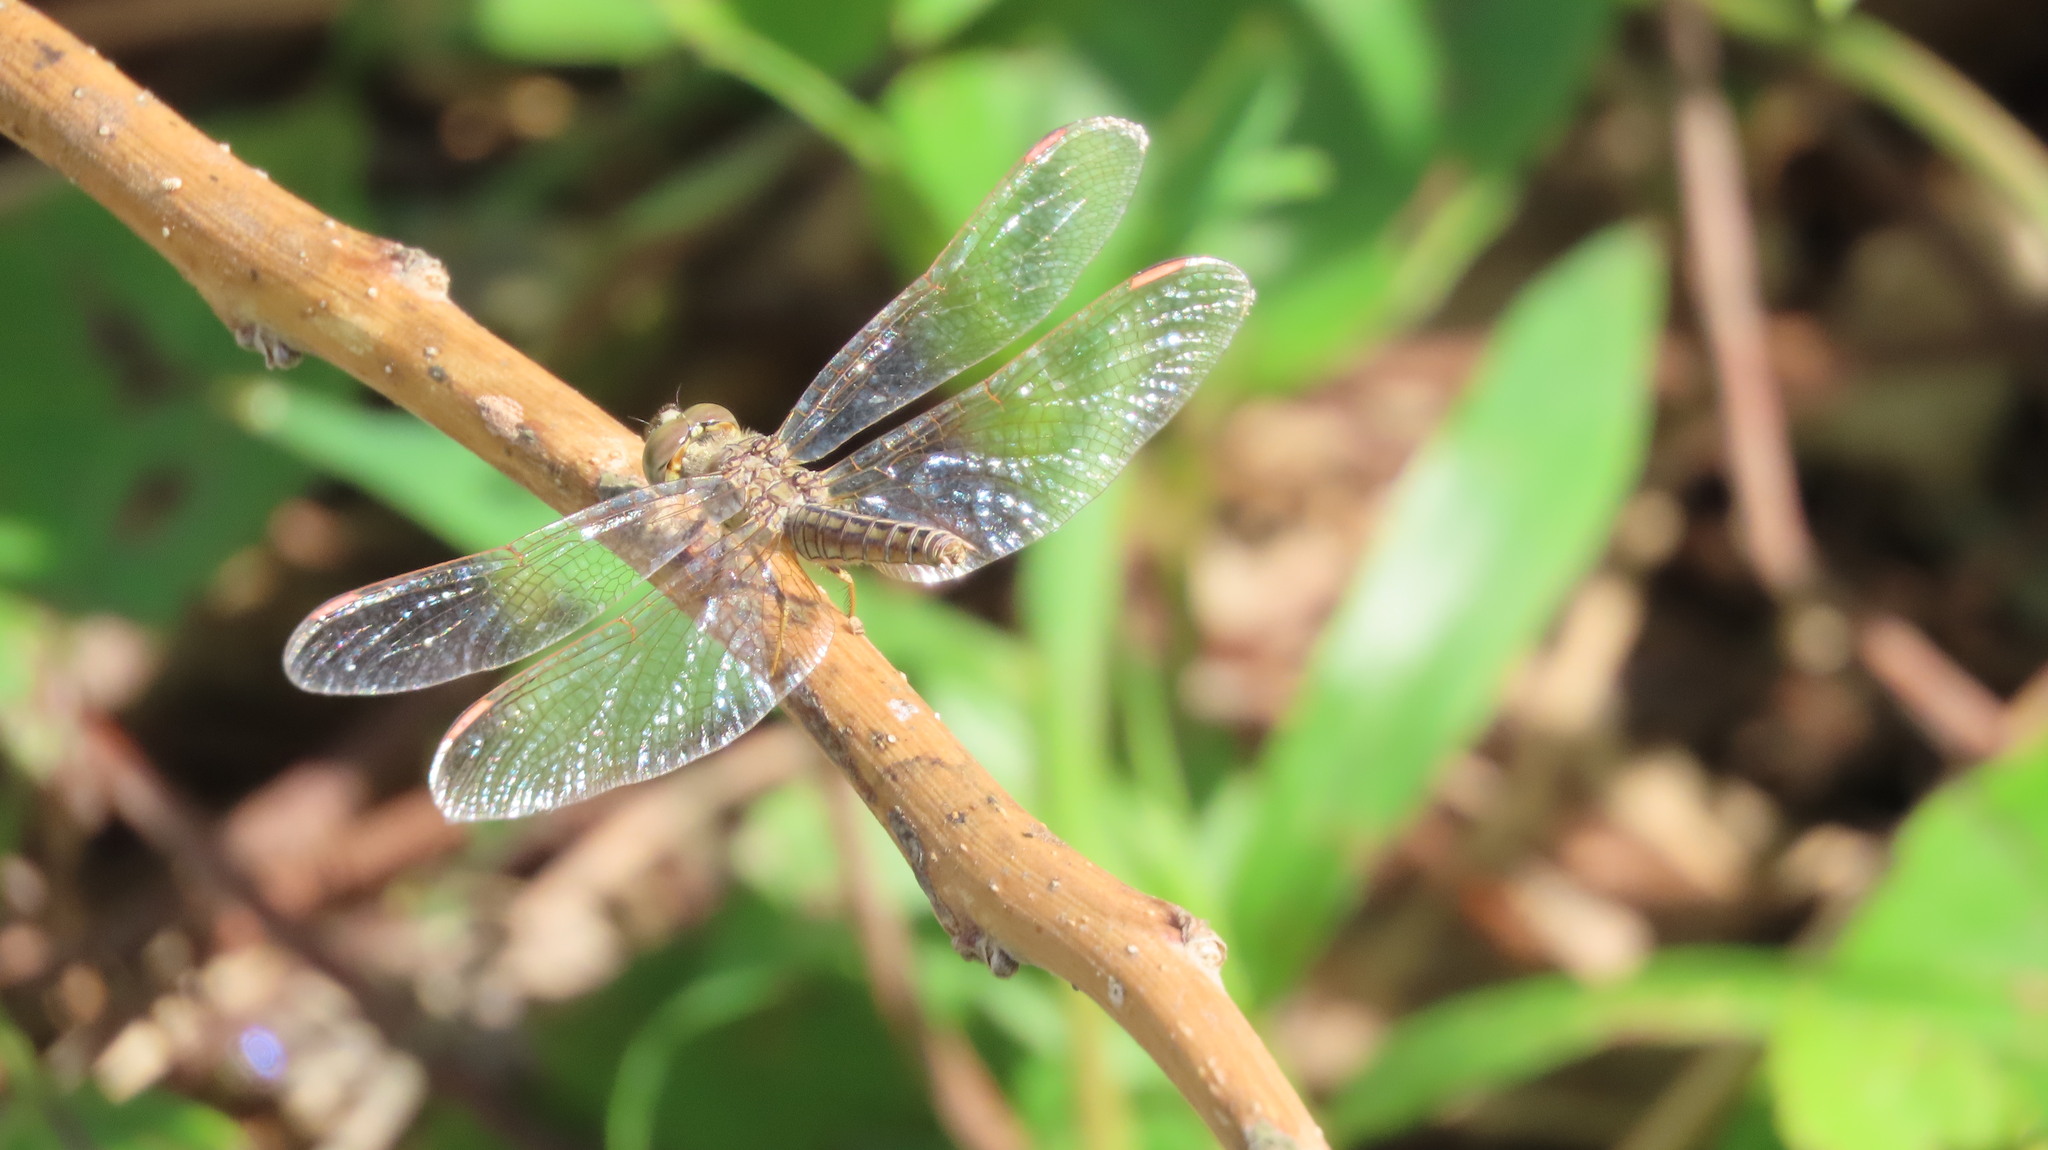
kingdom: Animalia
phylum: Arthropoda
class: Insecta
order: Odonata
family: Libellulidae
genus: Brachythemis
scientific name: Brachythemis contaminata
